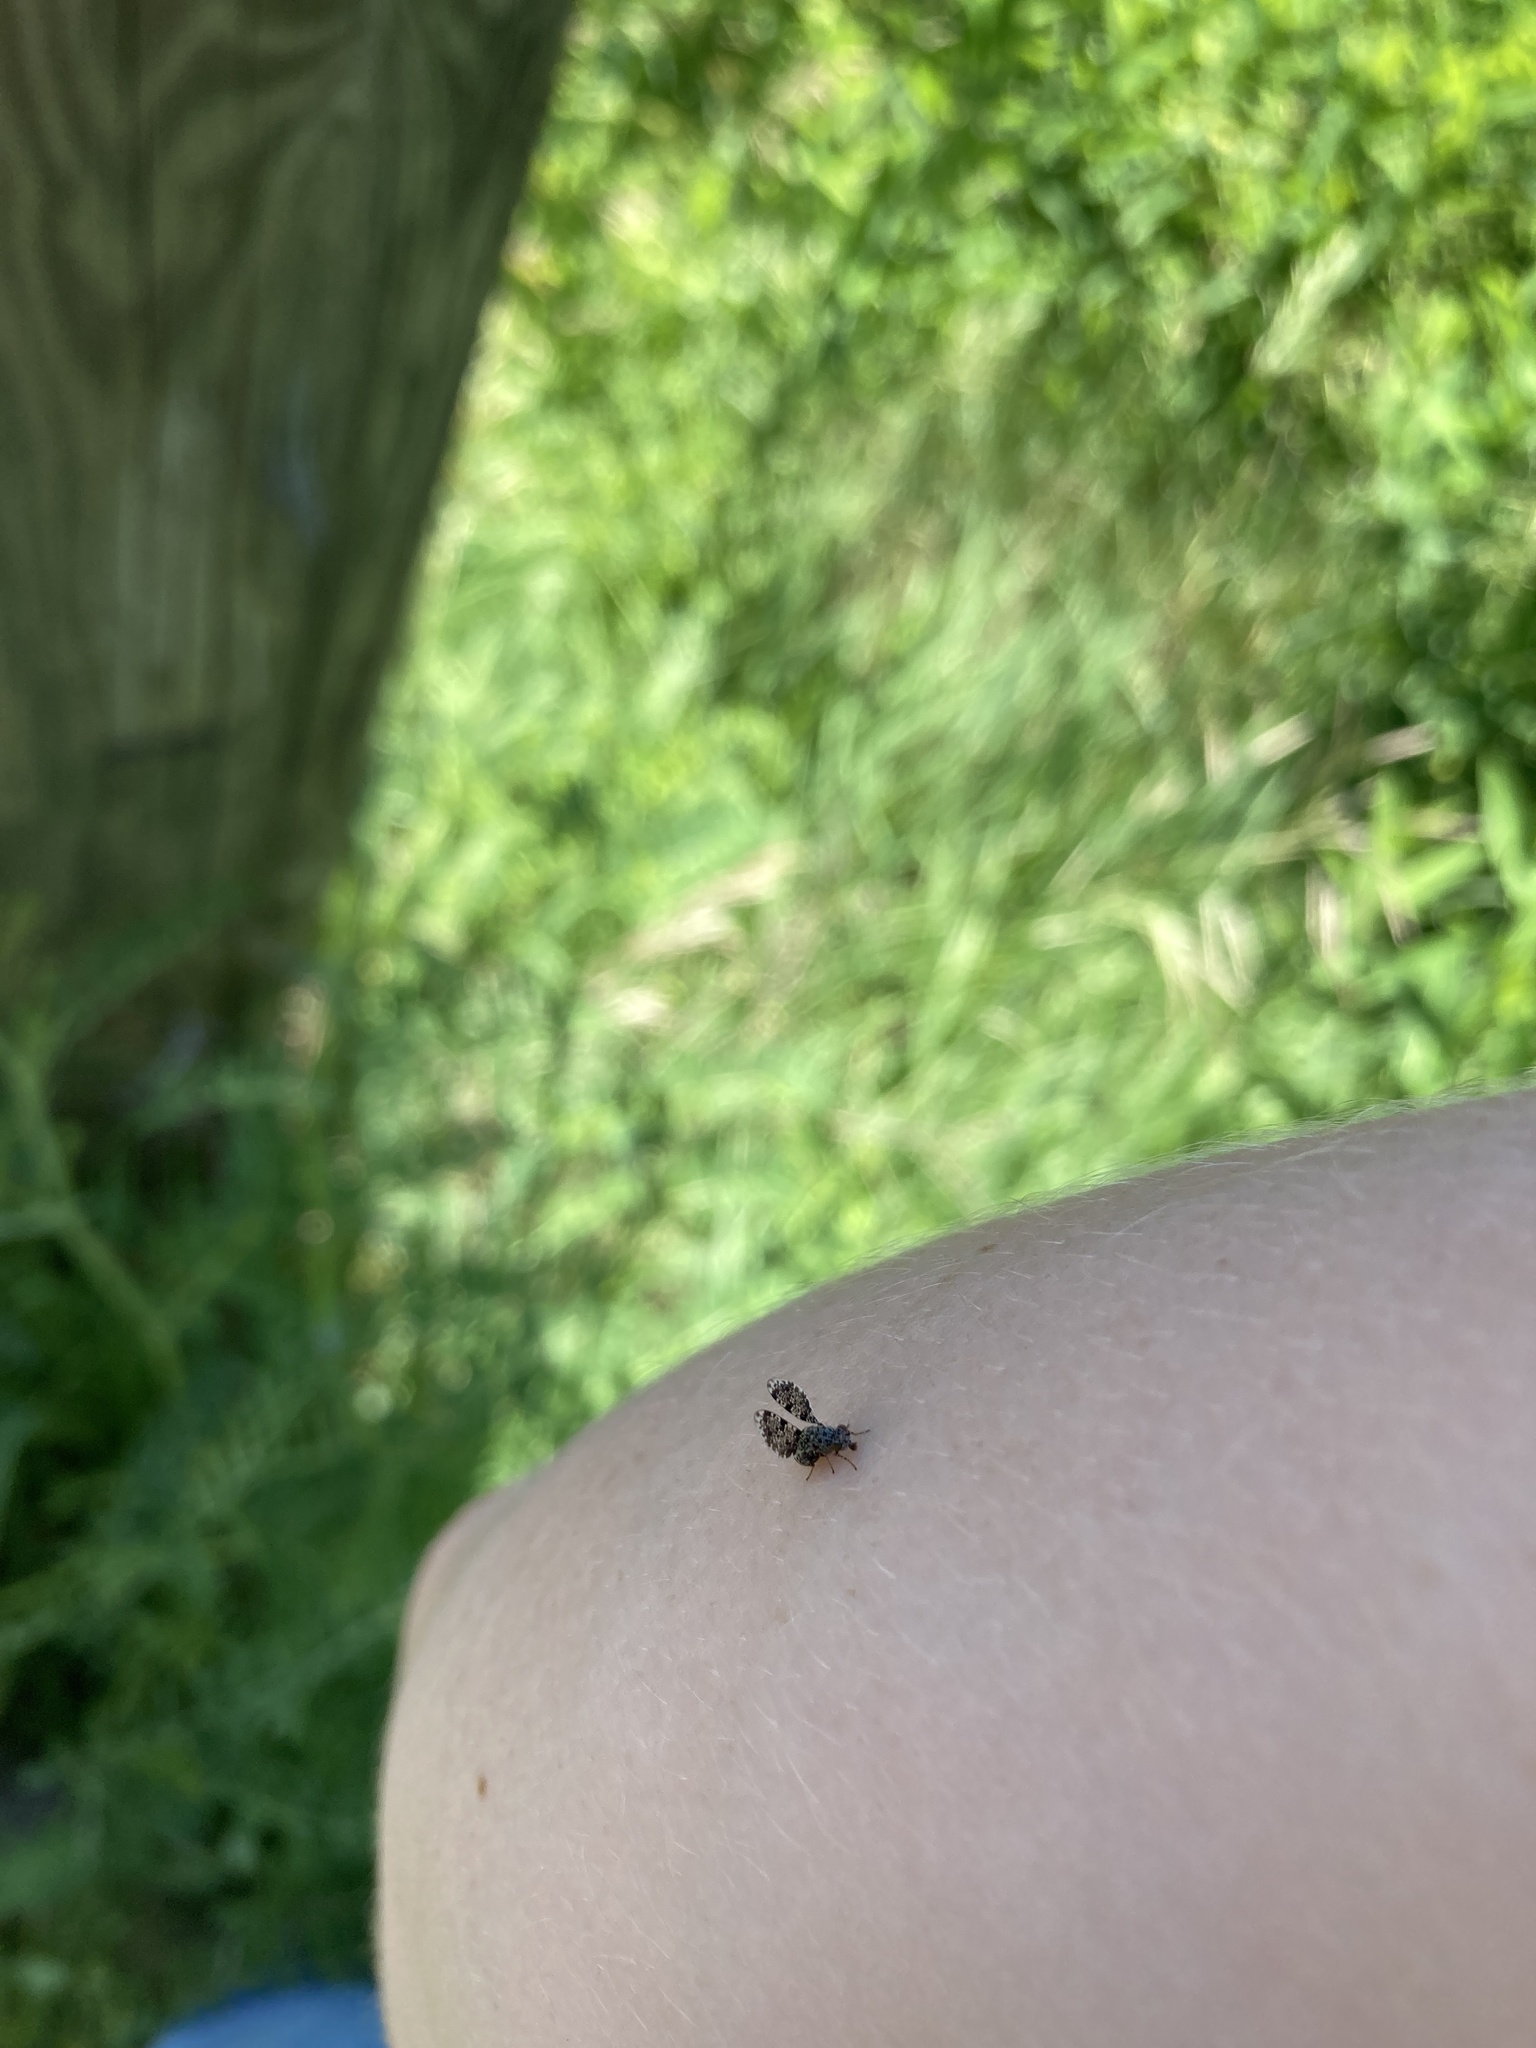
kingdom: Animalia
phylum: Arthropoda
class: Insecta
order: Diptera
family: Ulidiidae
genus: Callopistromyia
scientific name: Callopistromyia annulipes
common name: Peacock fly
